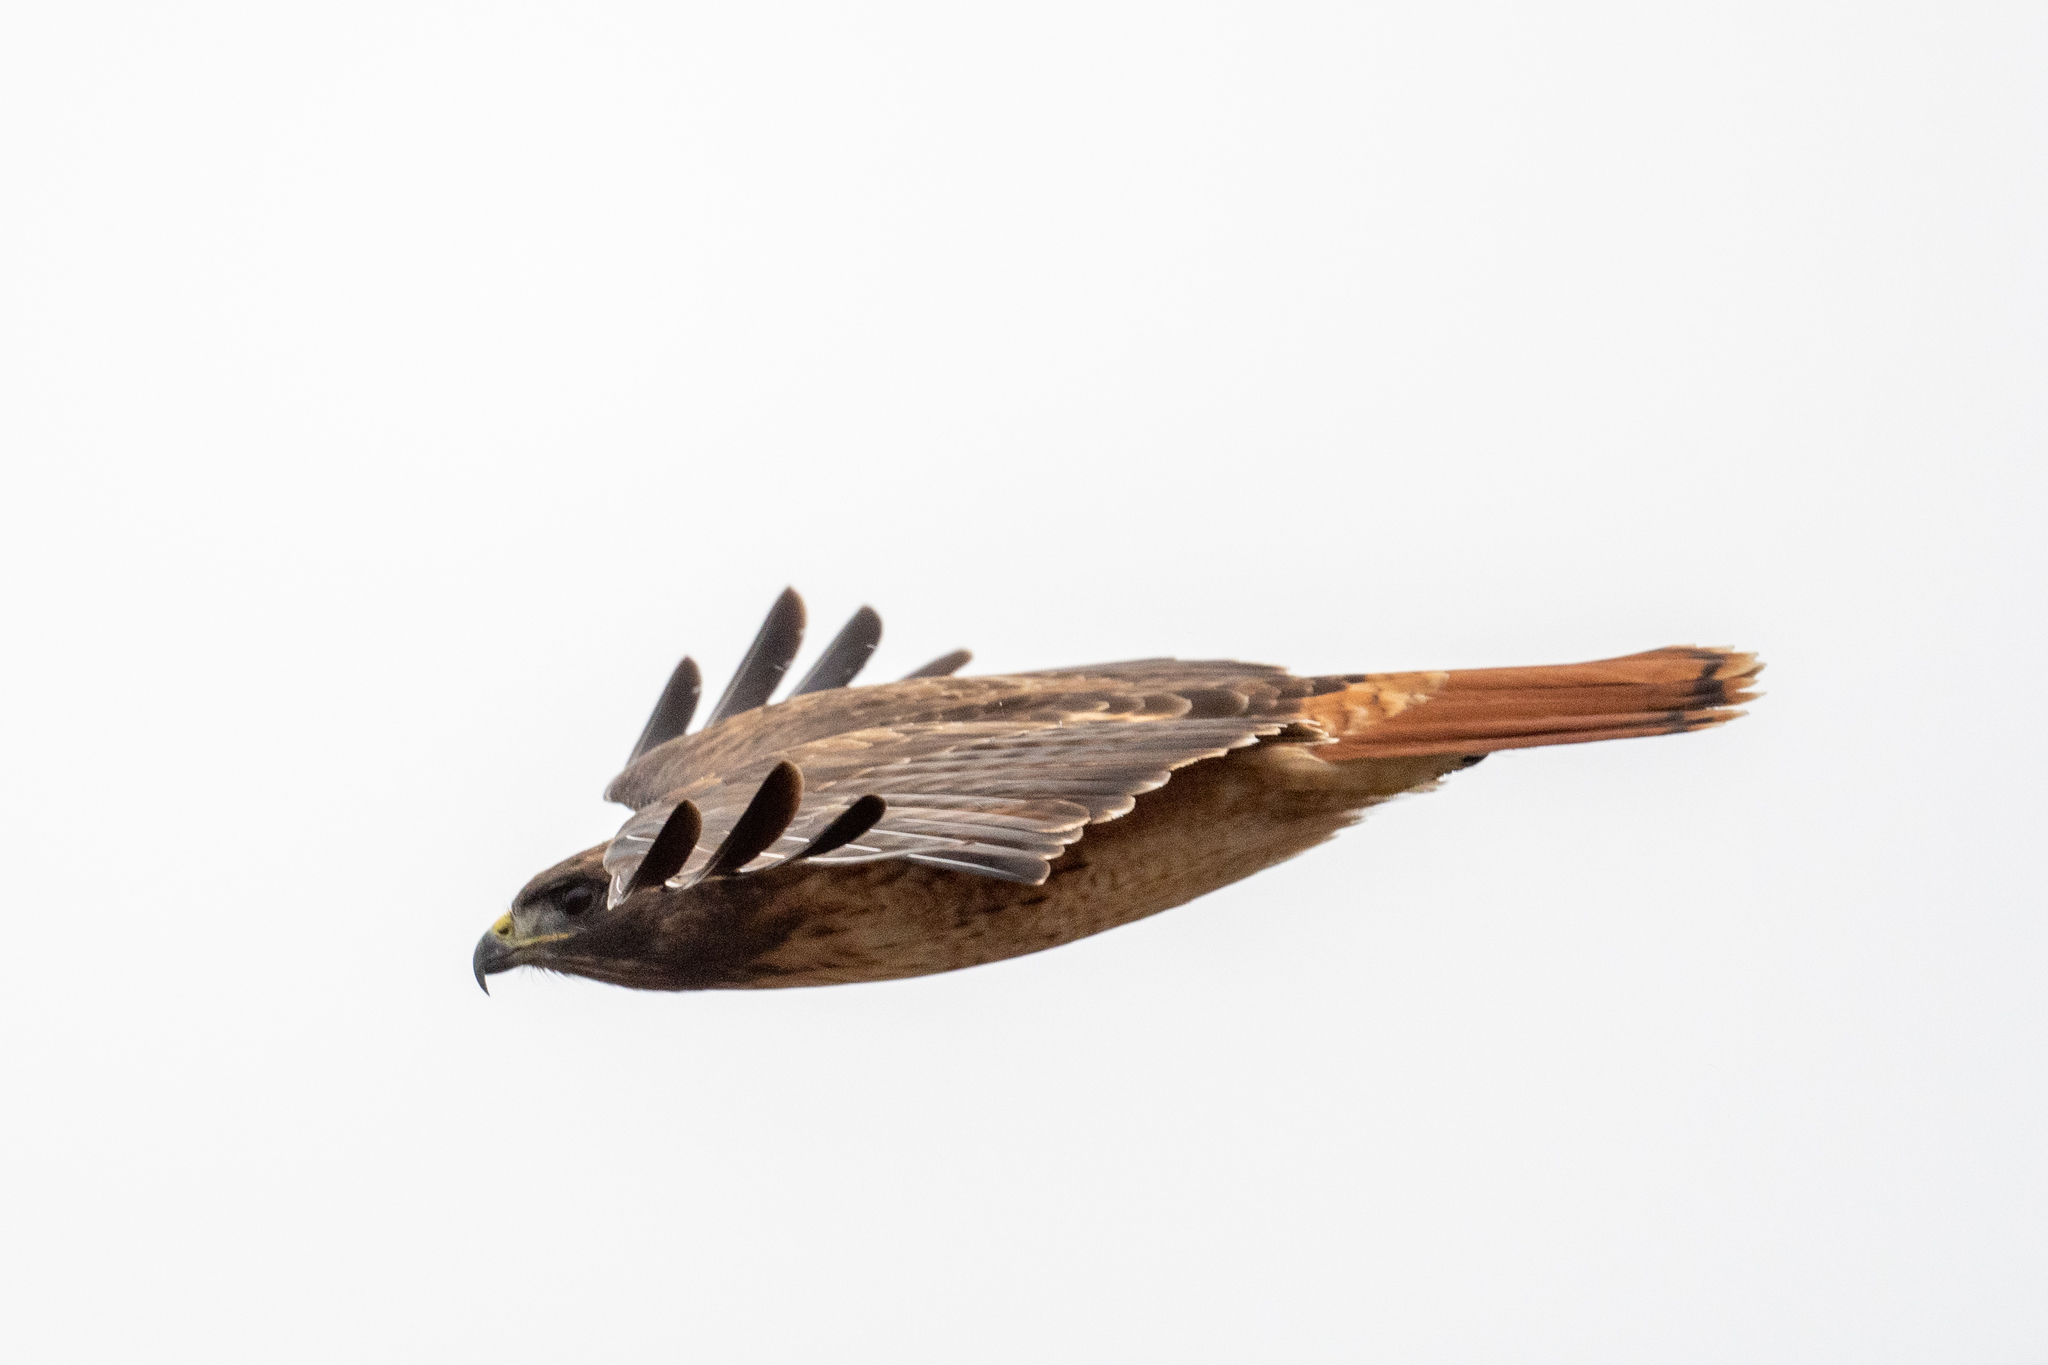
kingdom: Animalia
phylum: Chordata
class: Aves
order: Accipitriformes
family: Accipitridae
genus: Buteo
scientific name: Buteo jamaicensis
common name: Red-tailed hawk
